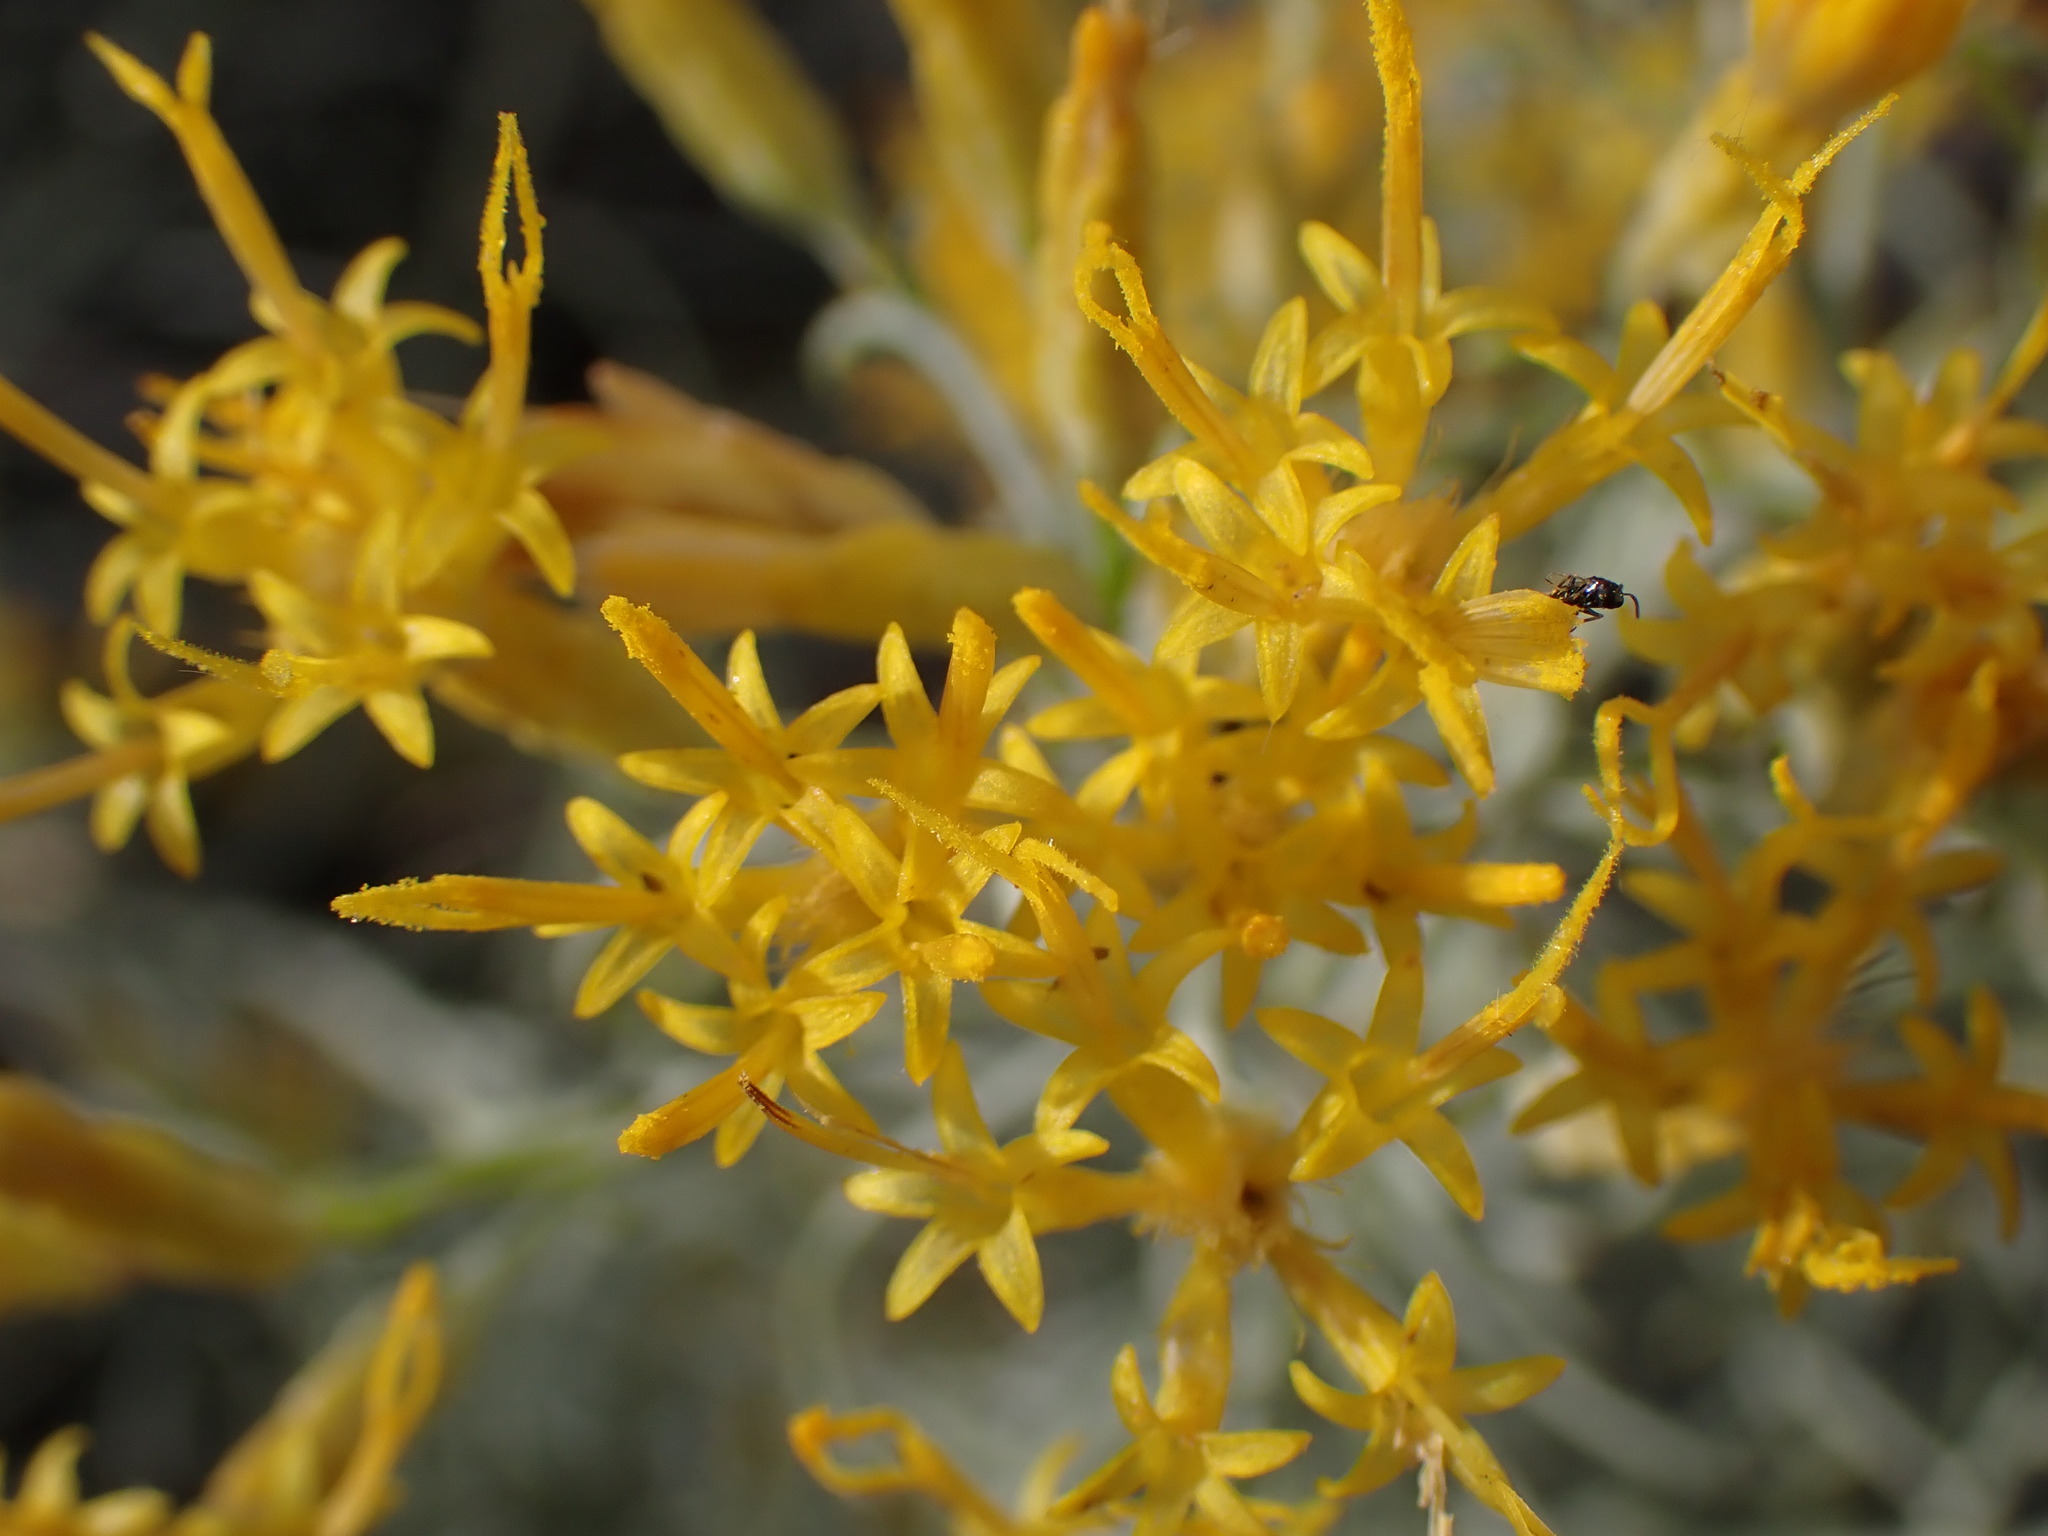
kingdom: Plantae
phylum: Tracheophyta
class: Magnoliopsida
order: Asterales
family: Asteraceae
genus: Ericameria
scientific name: Ericameria nauseosa
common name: Rubber rabbitbrush
